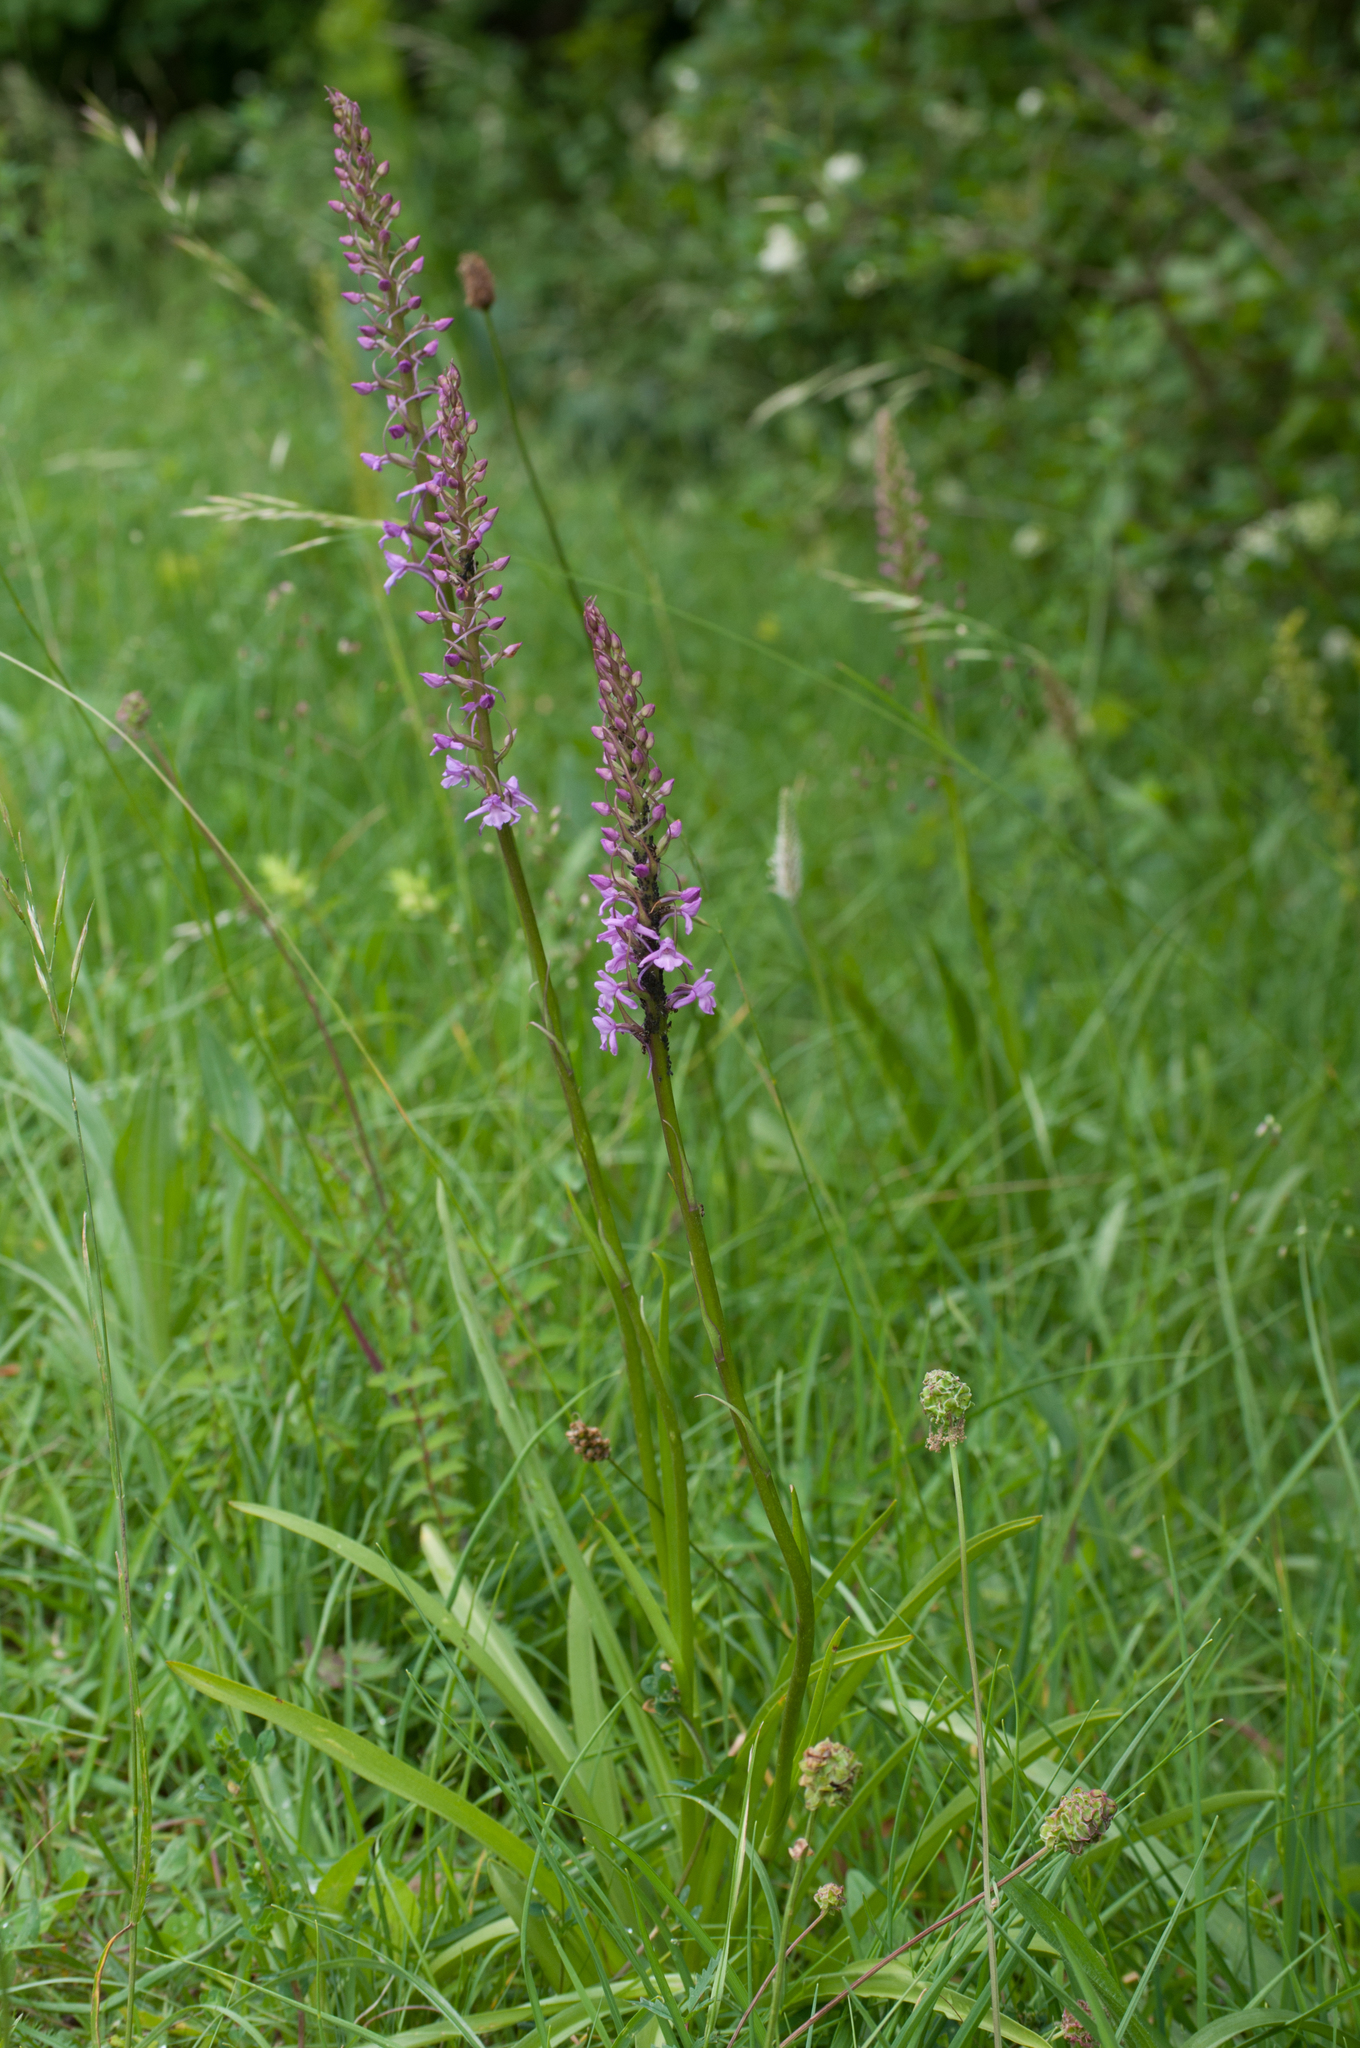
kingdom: Plantae
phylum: Tracheophyta
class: Liliopsida
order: Asparagales
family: Orchidaceae
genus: Gymnadenia
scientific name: Gymnadenia conopsea
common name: Fragrant orchid
